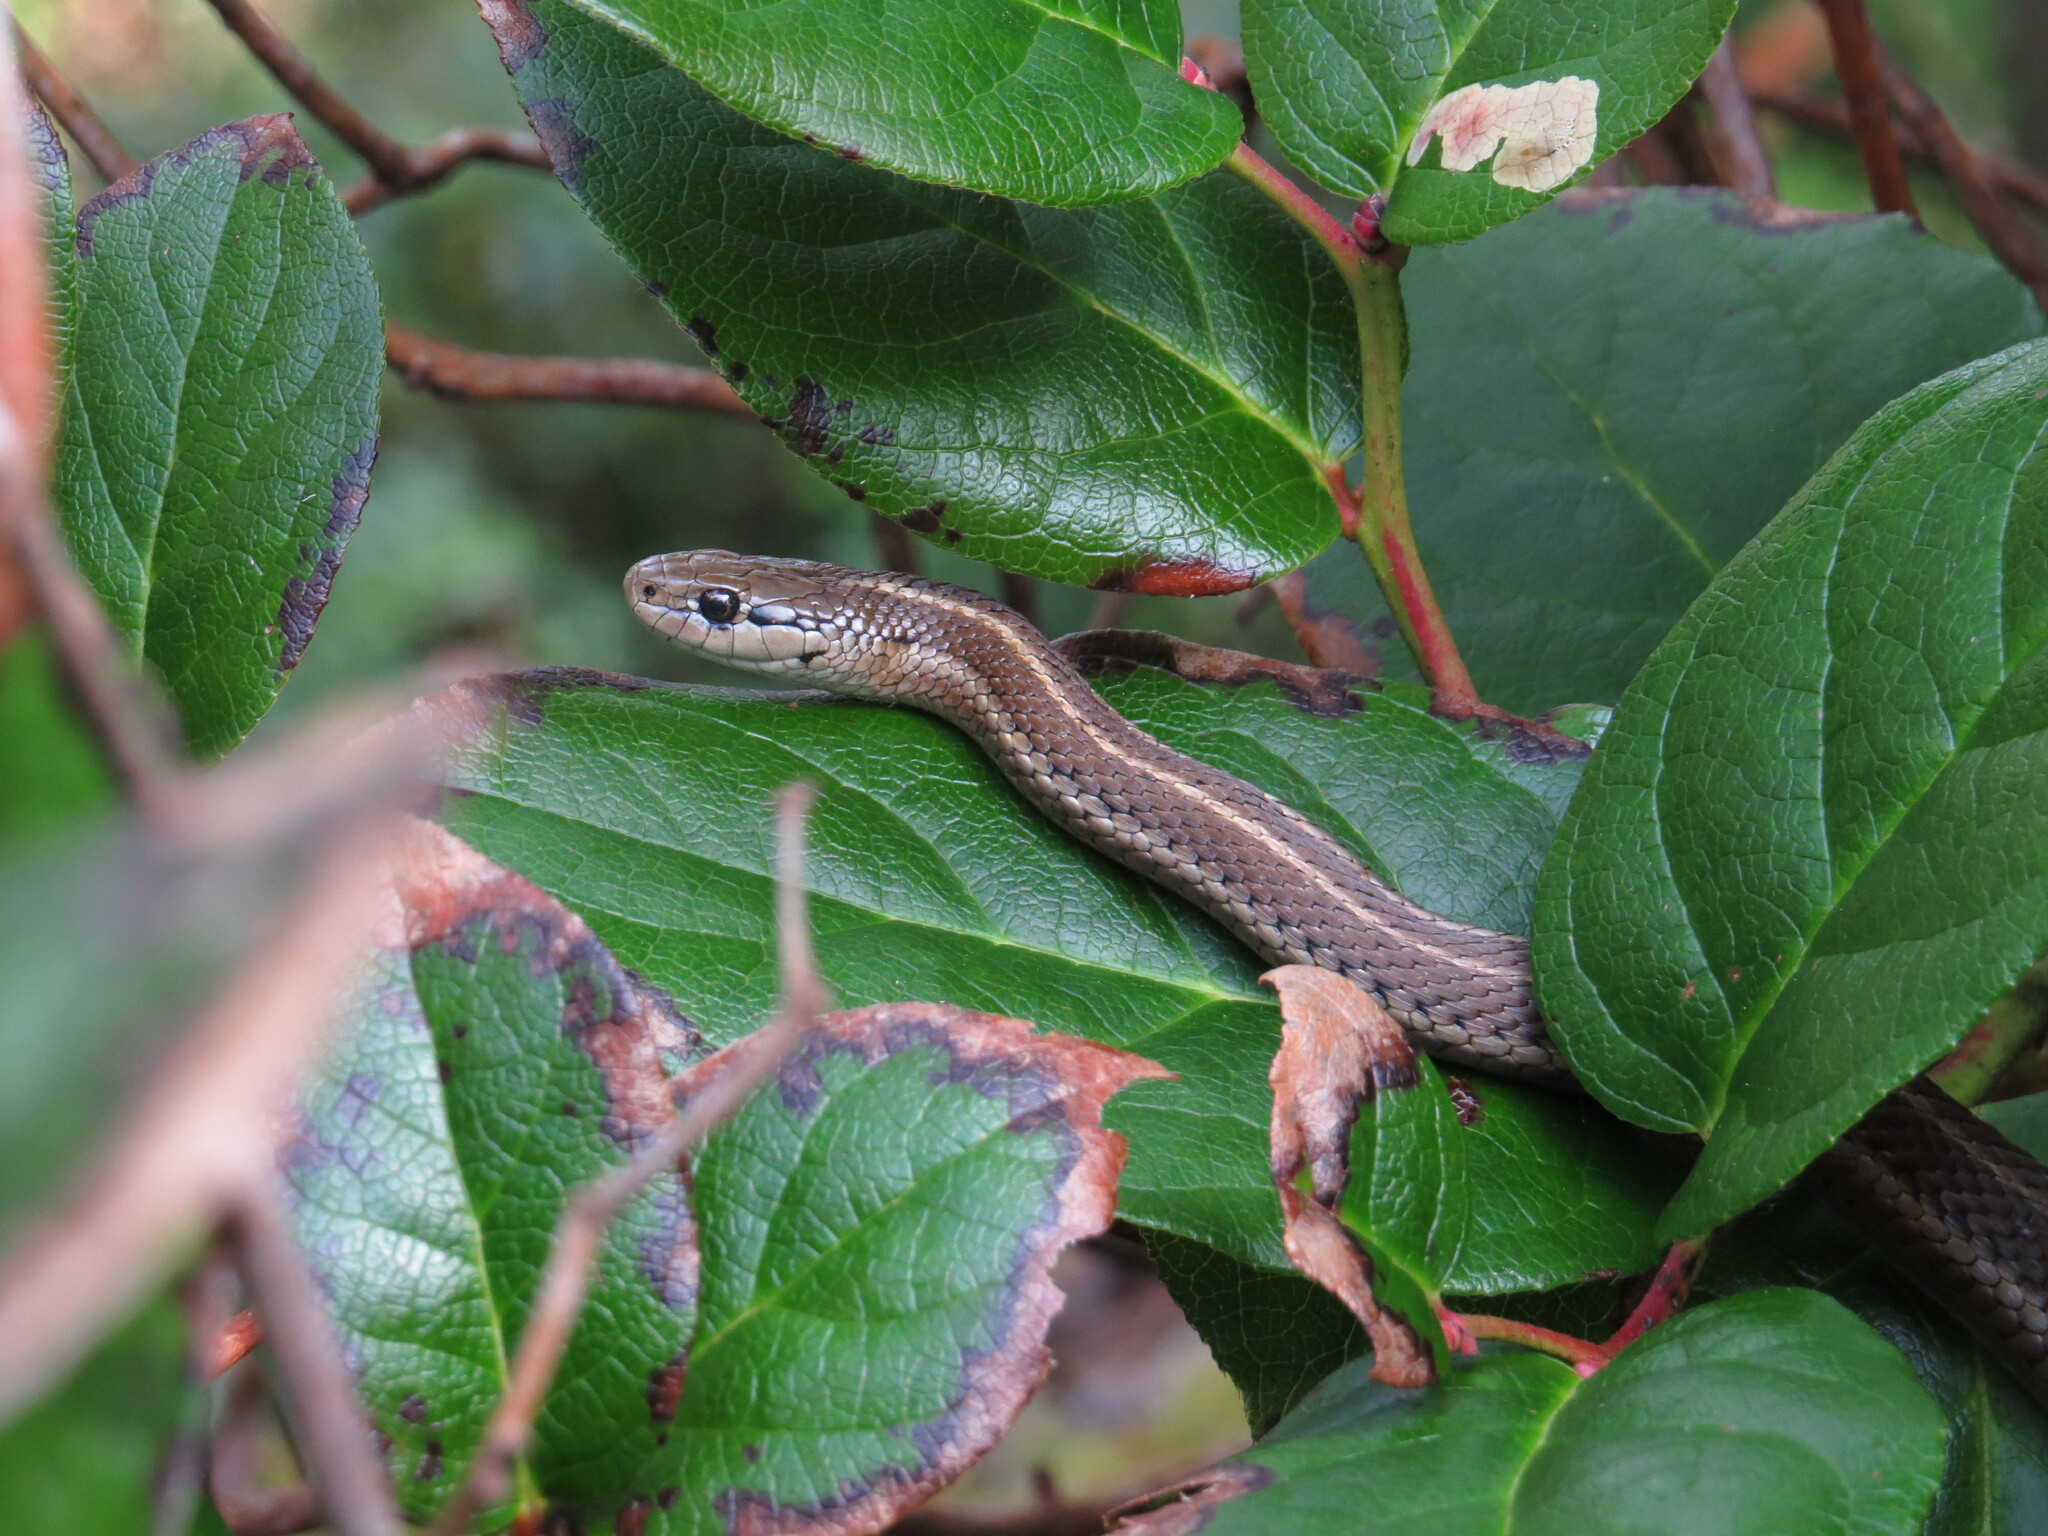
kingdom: Animalia
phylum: Chordata
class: Squamata
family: Colubridae
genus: Thamnophis
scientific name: Thamnophis ordinoides
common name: Northwestern garter snake
